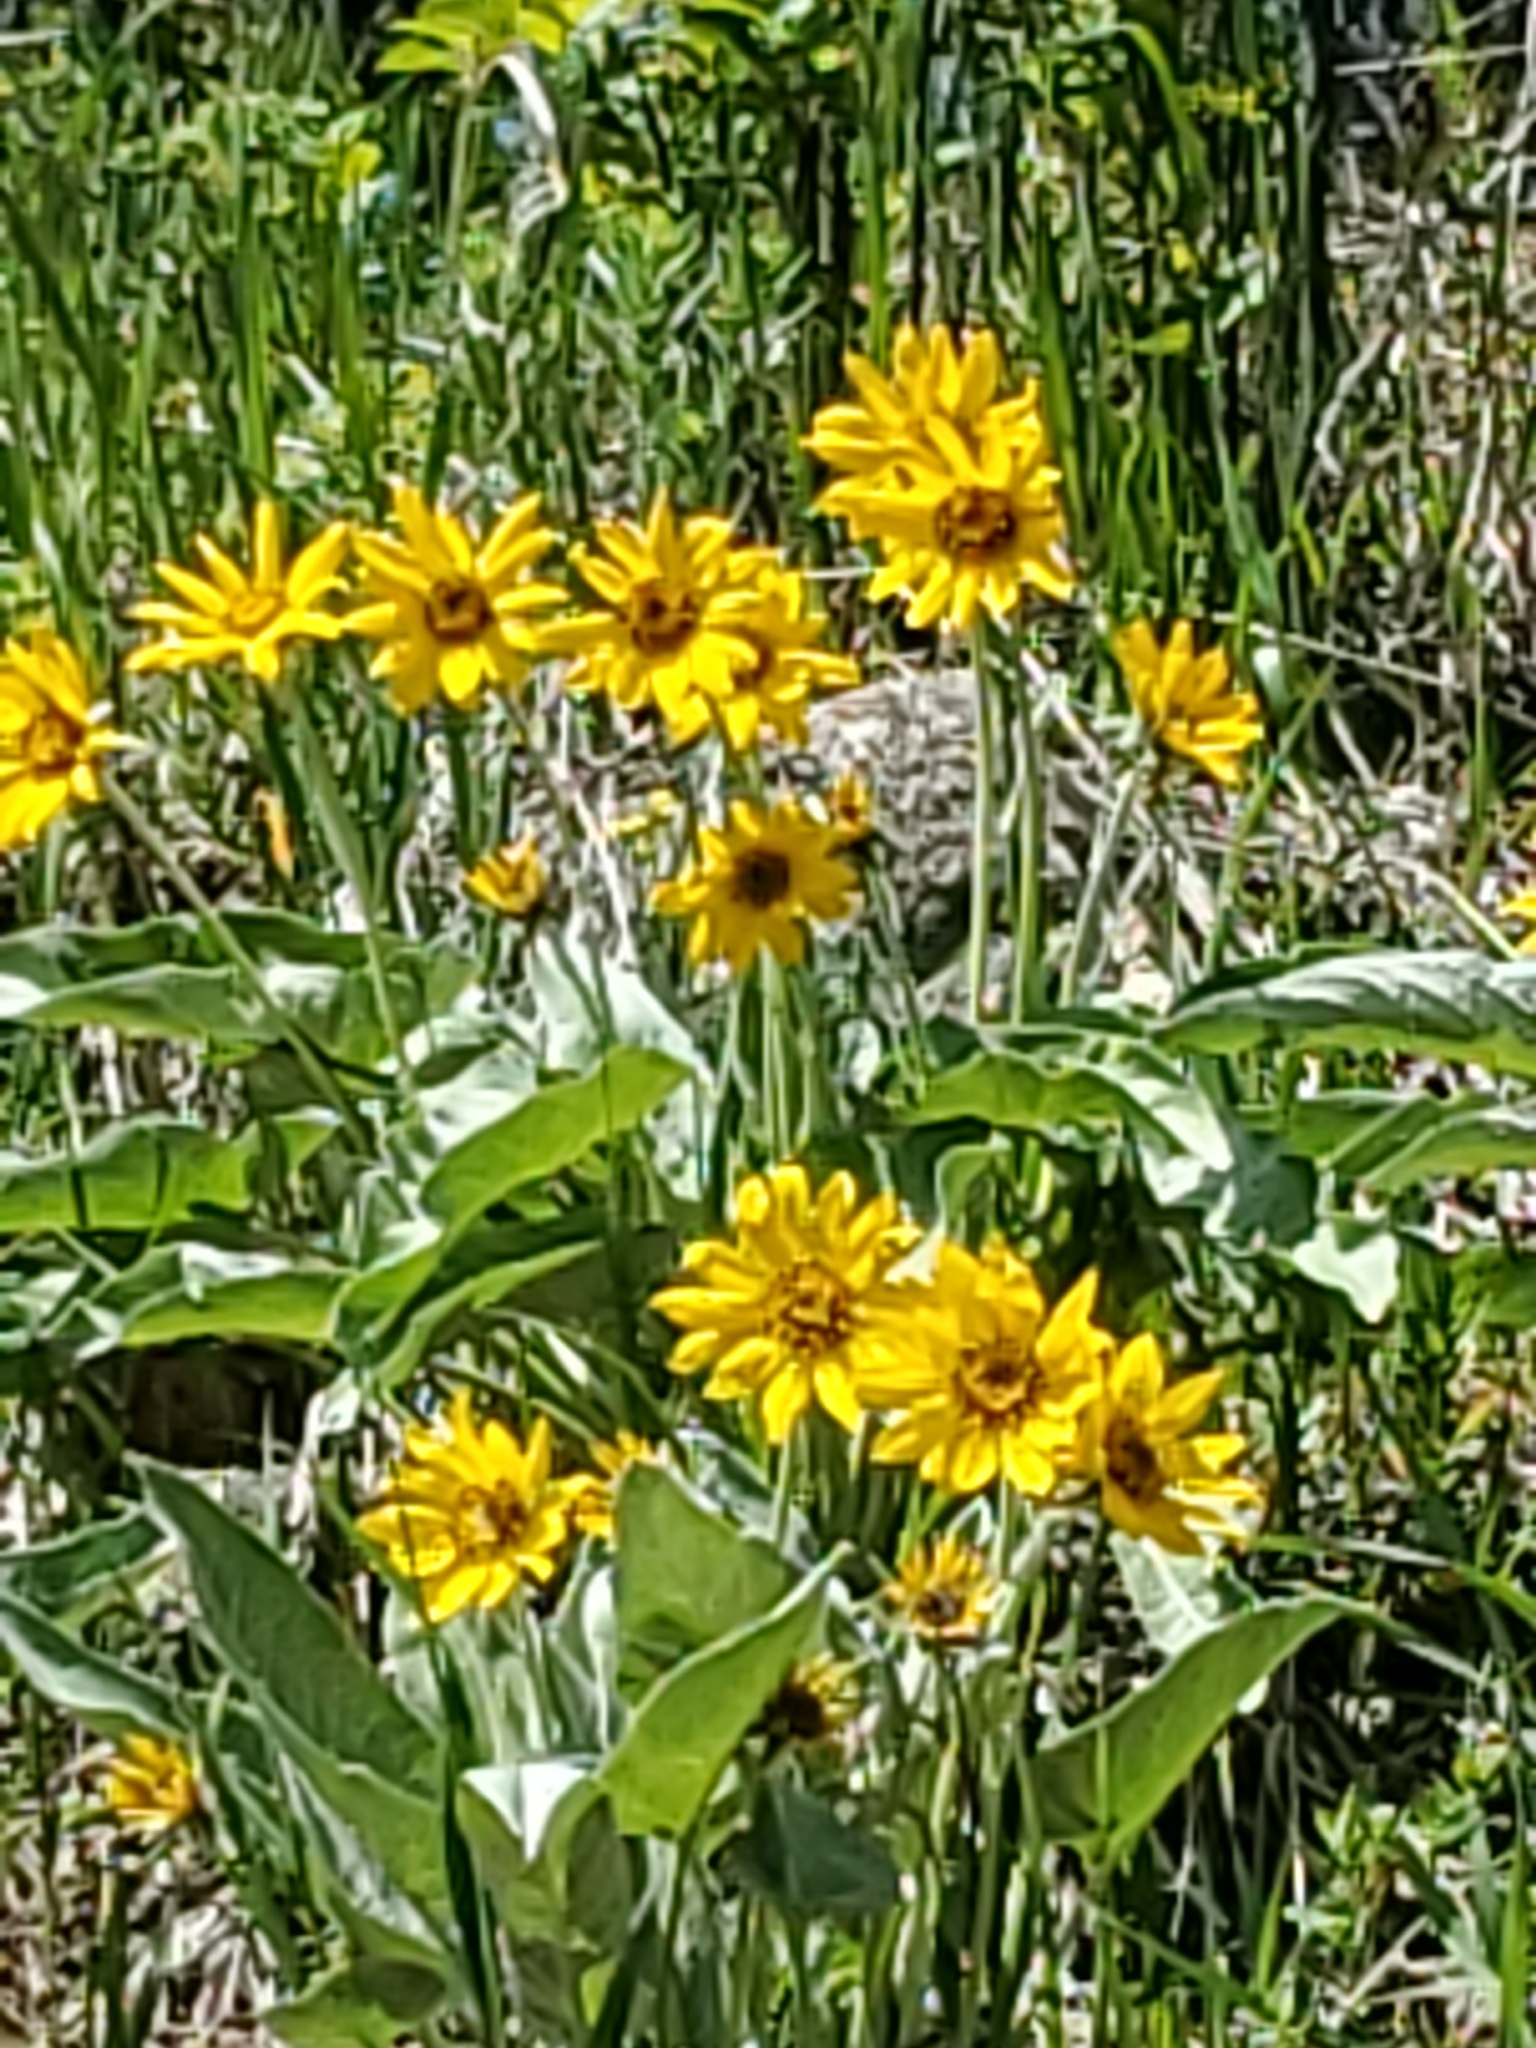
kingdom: Plantae
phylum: Tracheophyta
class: Magnoliopsida
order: Asterales
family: Asteraceae
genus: Wyethia
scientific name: Wyethia sagittata
